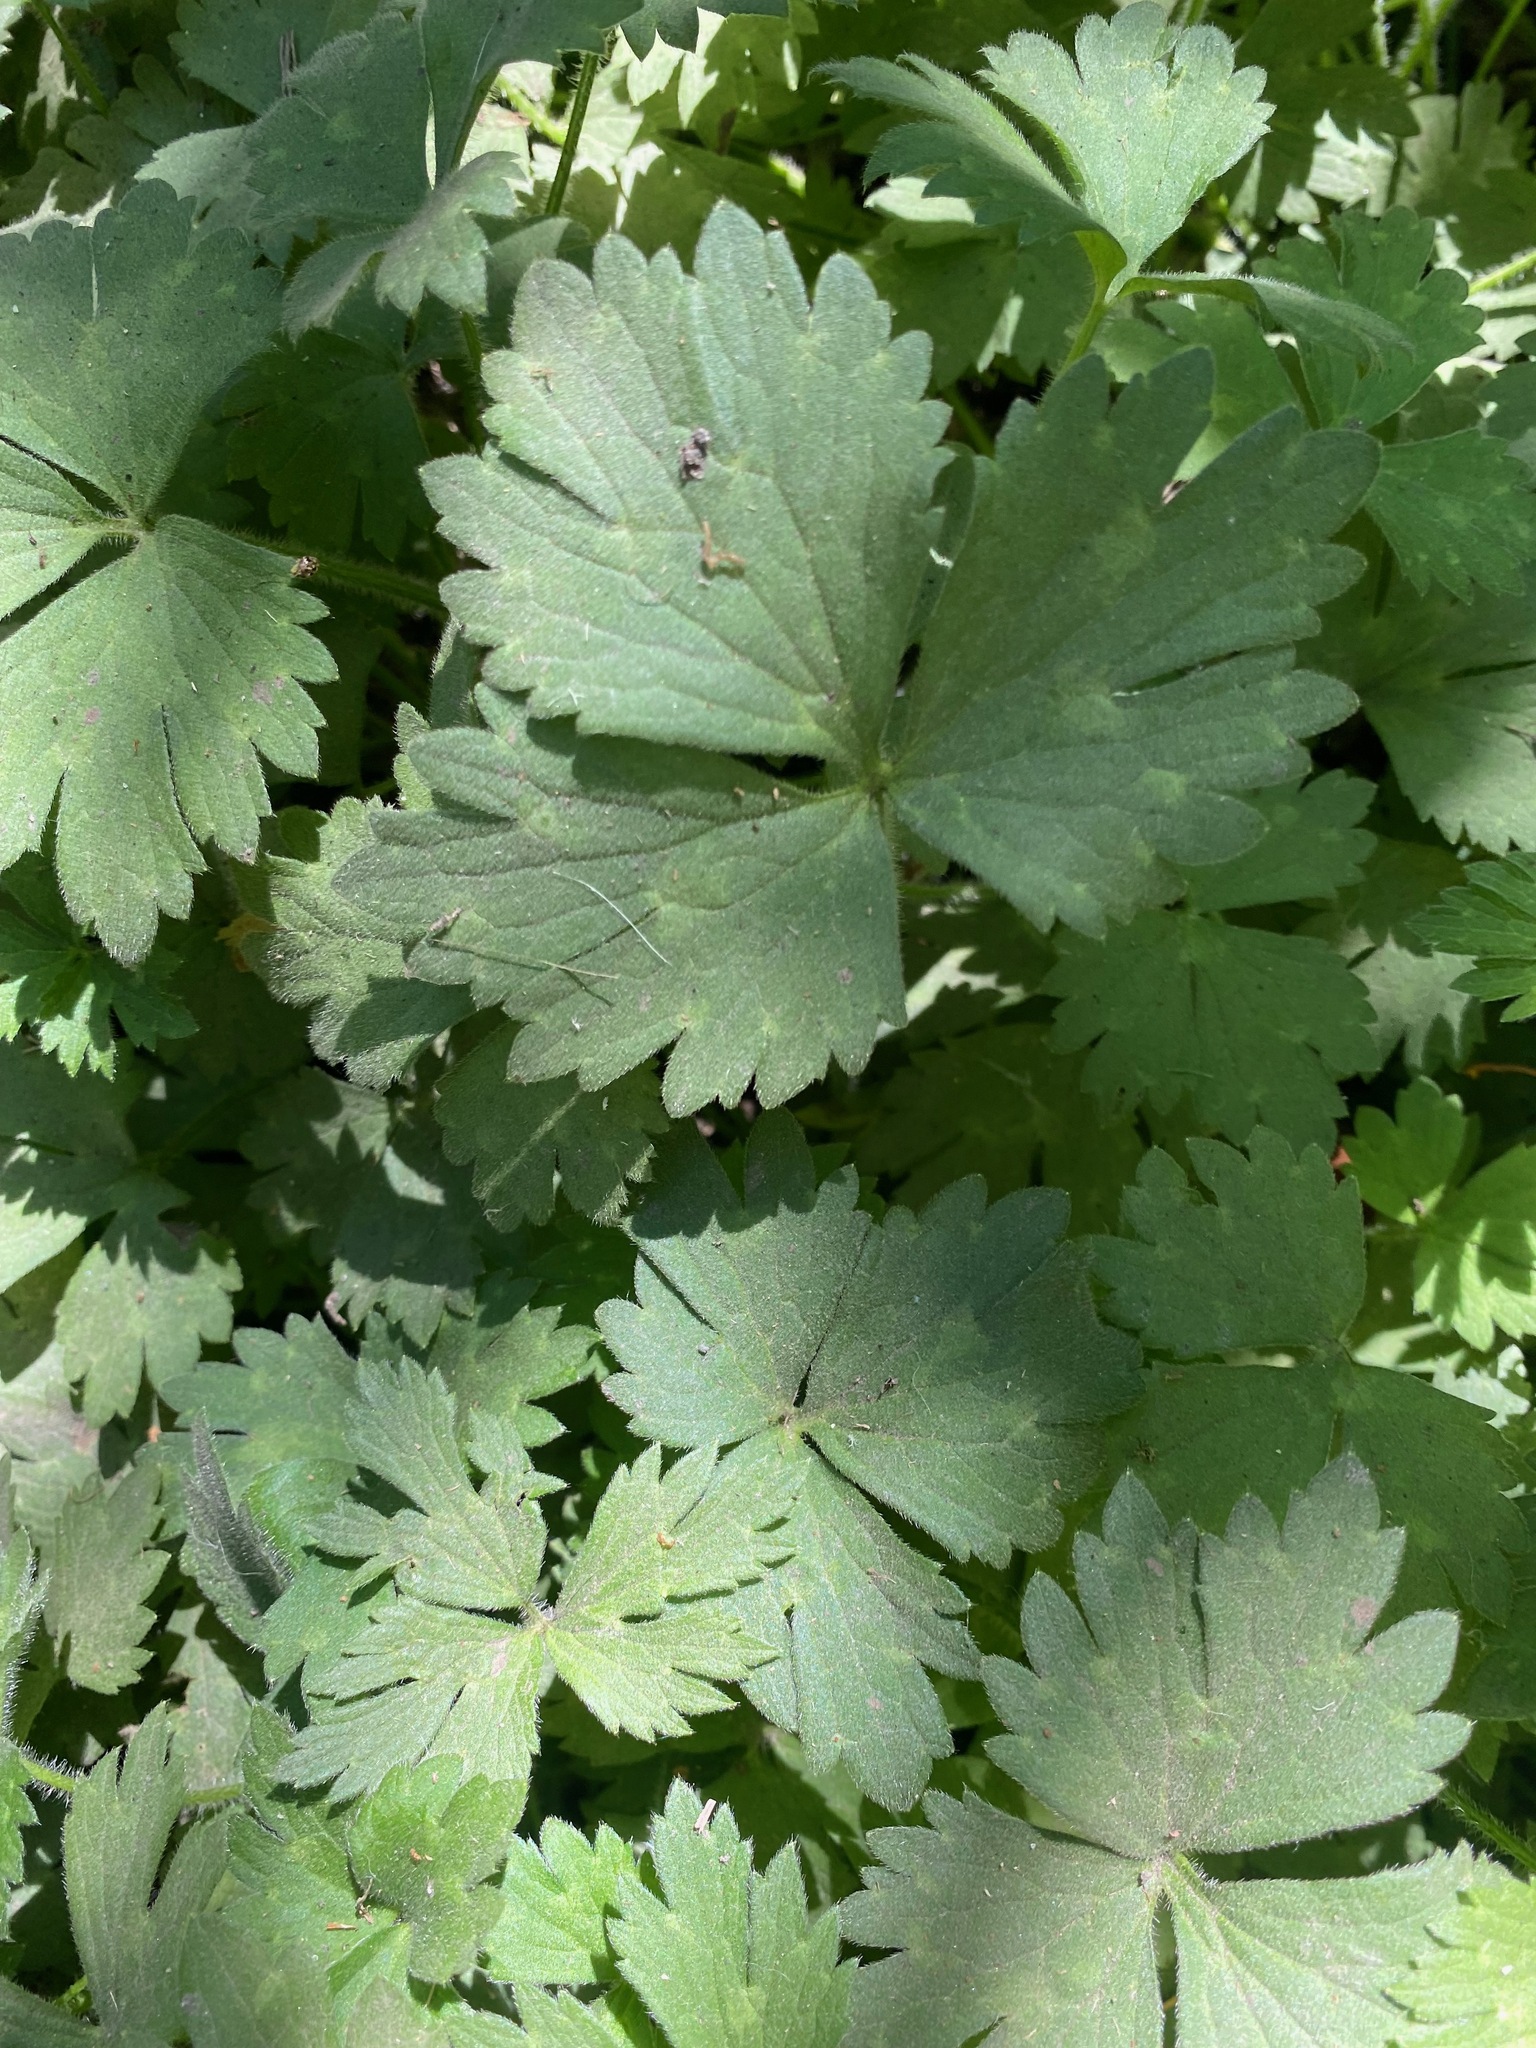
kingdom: Plantae
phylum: Tracheophyta
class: Magnoliopsida
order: Ranunculales
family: Ranunculaceae
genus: Ranunculus
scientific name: Ranunculus repens
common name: Creeping buttercup
